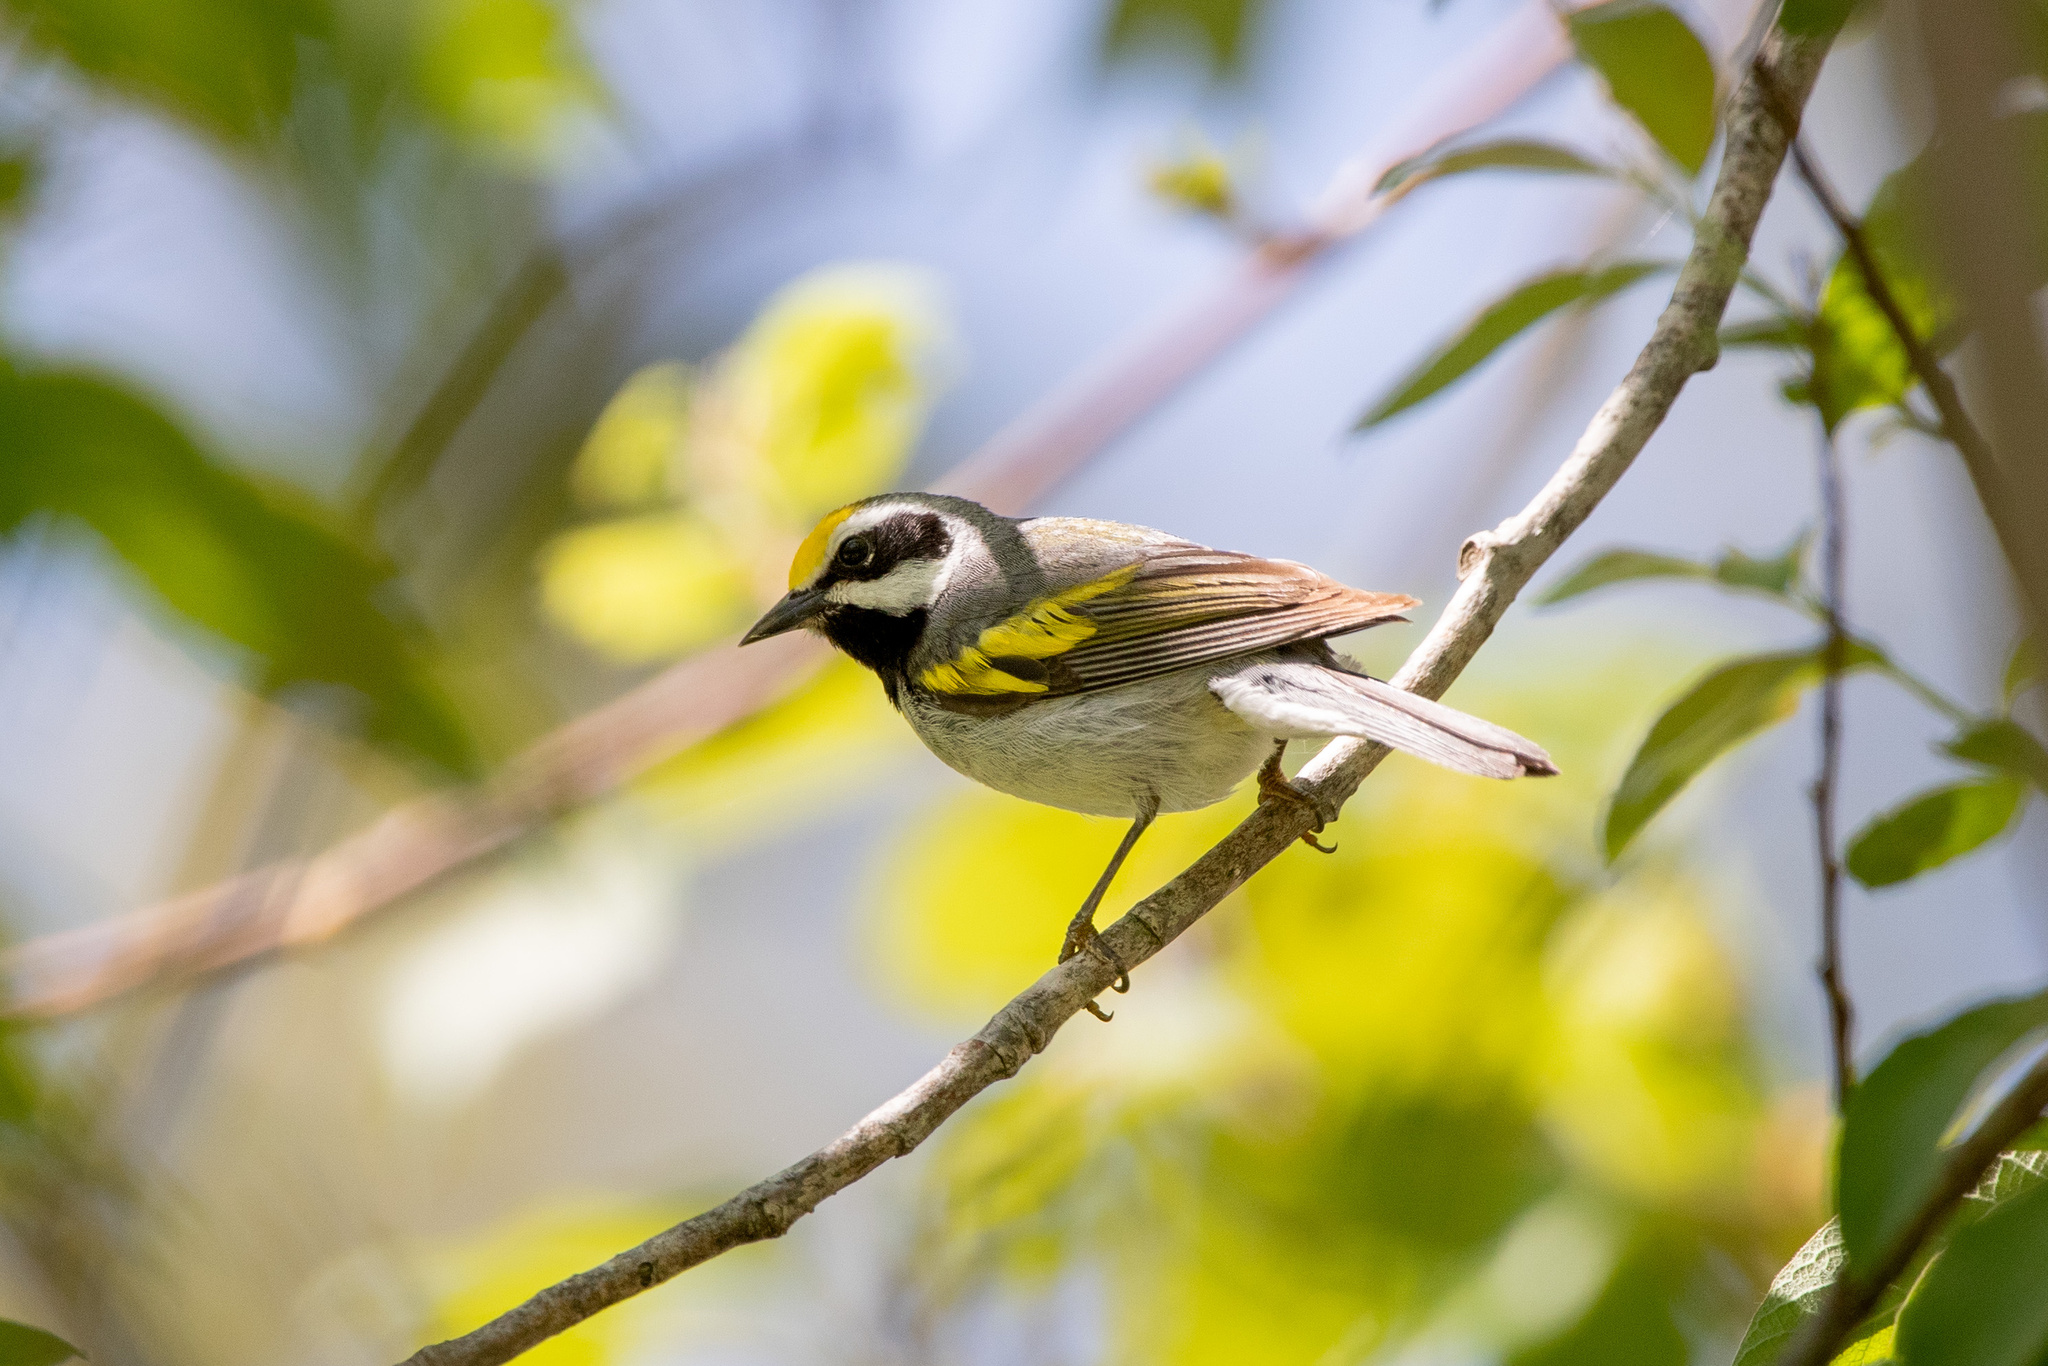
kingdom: Animalia
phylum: Chordata
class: Aves
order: Passeriformes
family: Parulidae
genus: Vermivora
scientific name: Vermivora chrysoptera
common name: Golden-winged warbler
